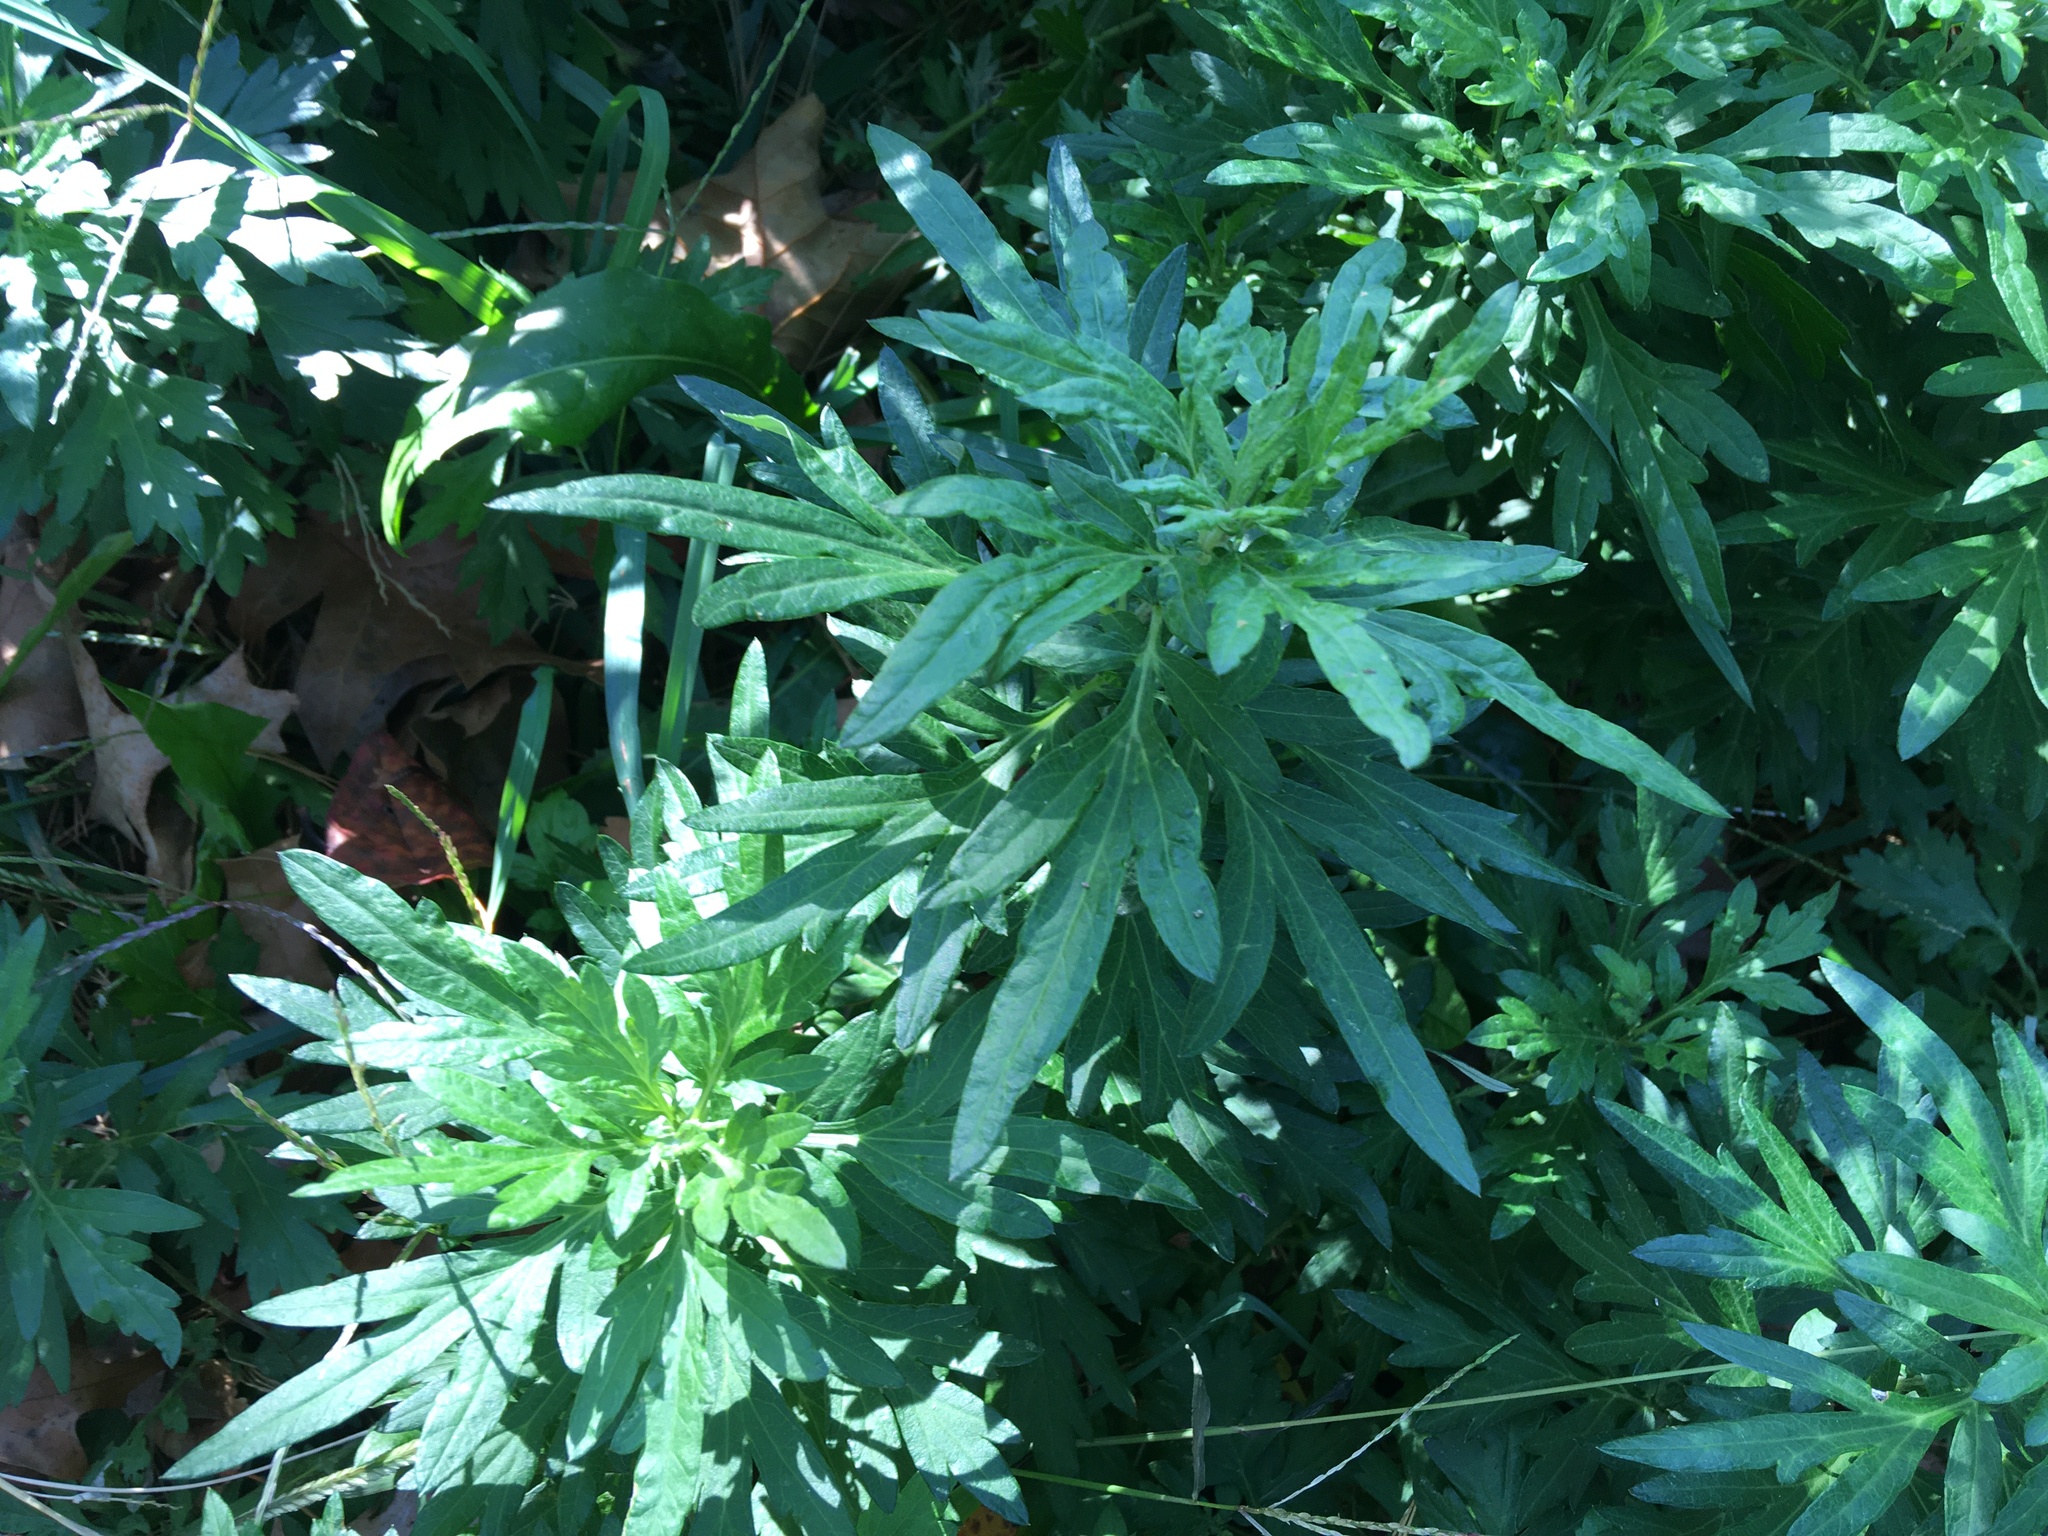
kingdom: Plantae
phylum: Tracheophyta
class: Magnoliopsida
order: Asterales
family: Asteraceae
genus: Artemisia
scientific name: Artemisia vulgaris
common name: Mugwort
